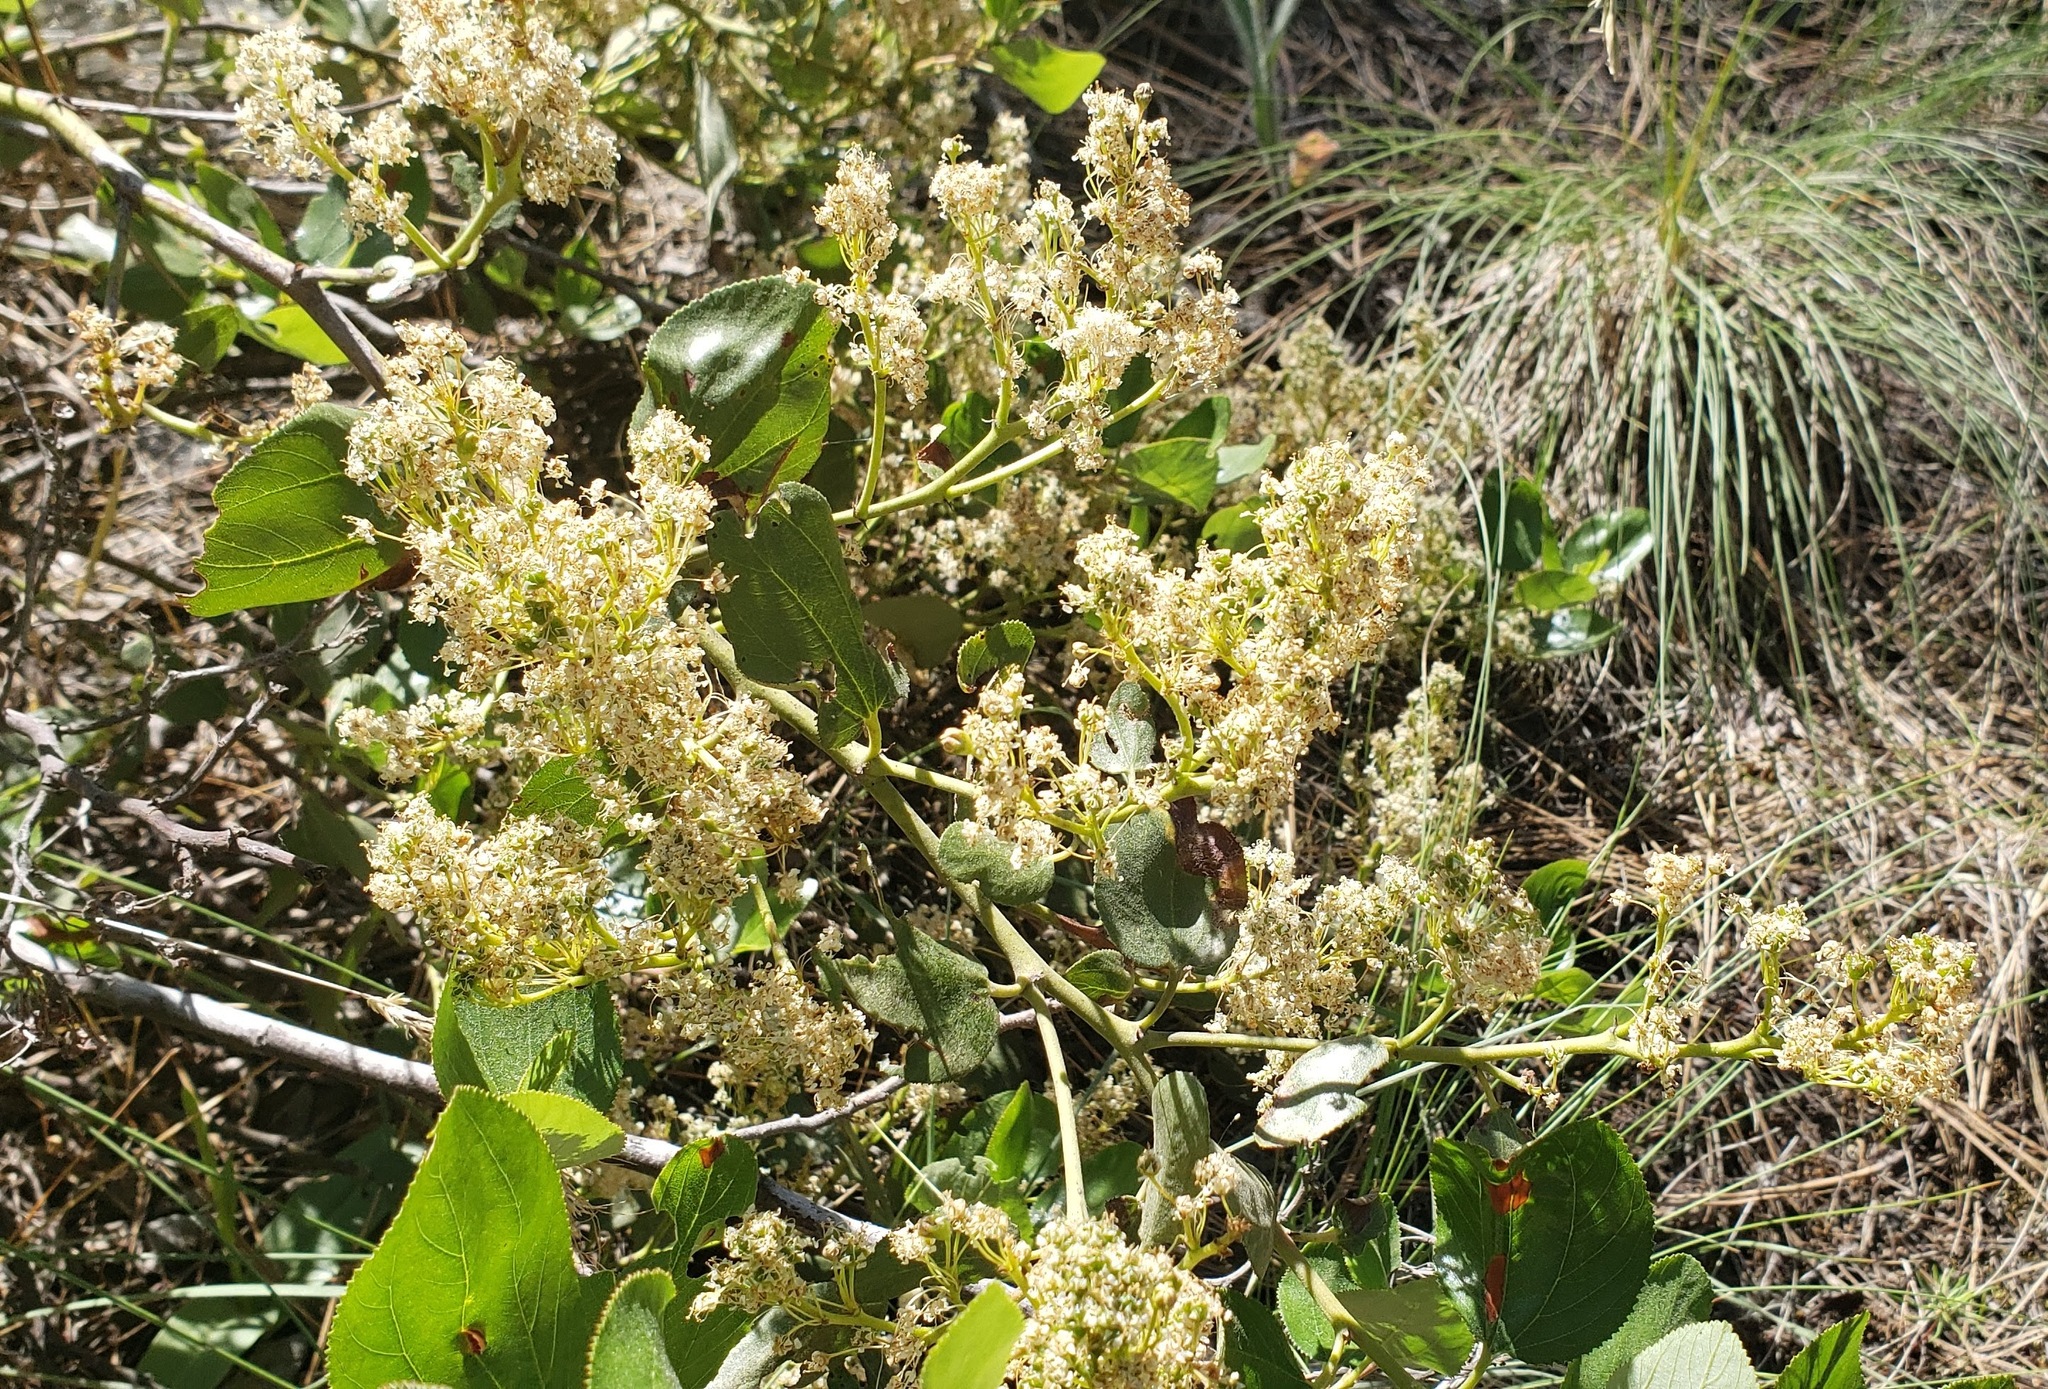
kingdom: Plantae
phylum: Tracheophyta
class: Magnoliopsida
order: Rosales
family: Rhamnaceae
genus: Ceanothus
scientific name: Ceanothus velutinus
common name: Snowbrush
